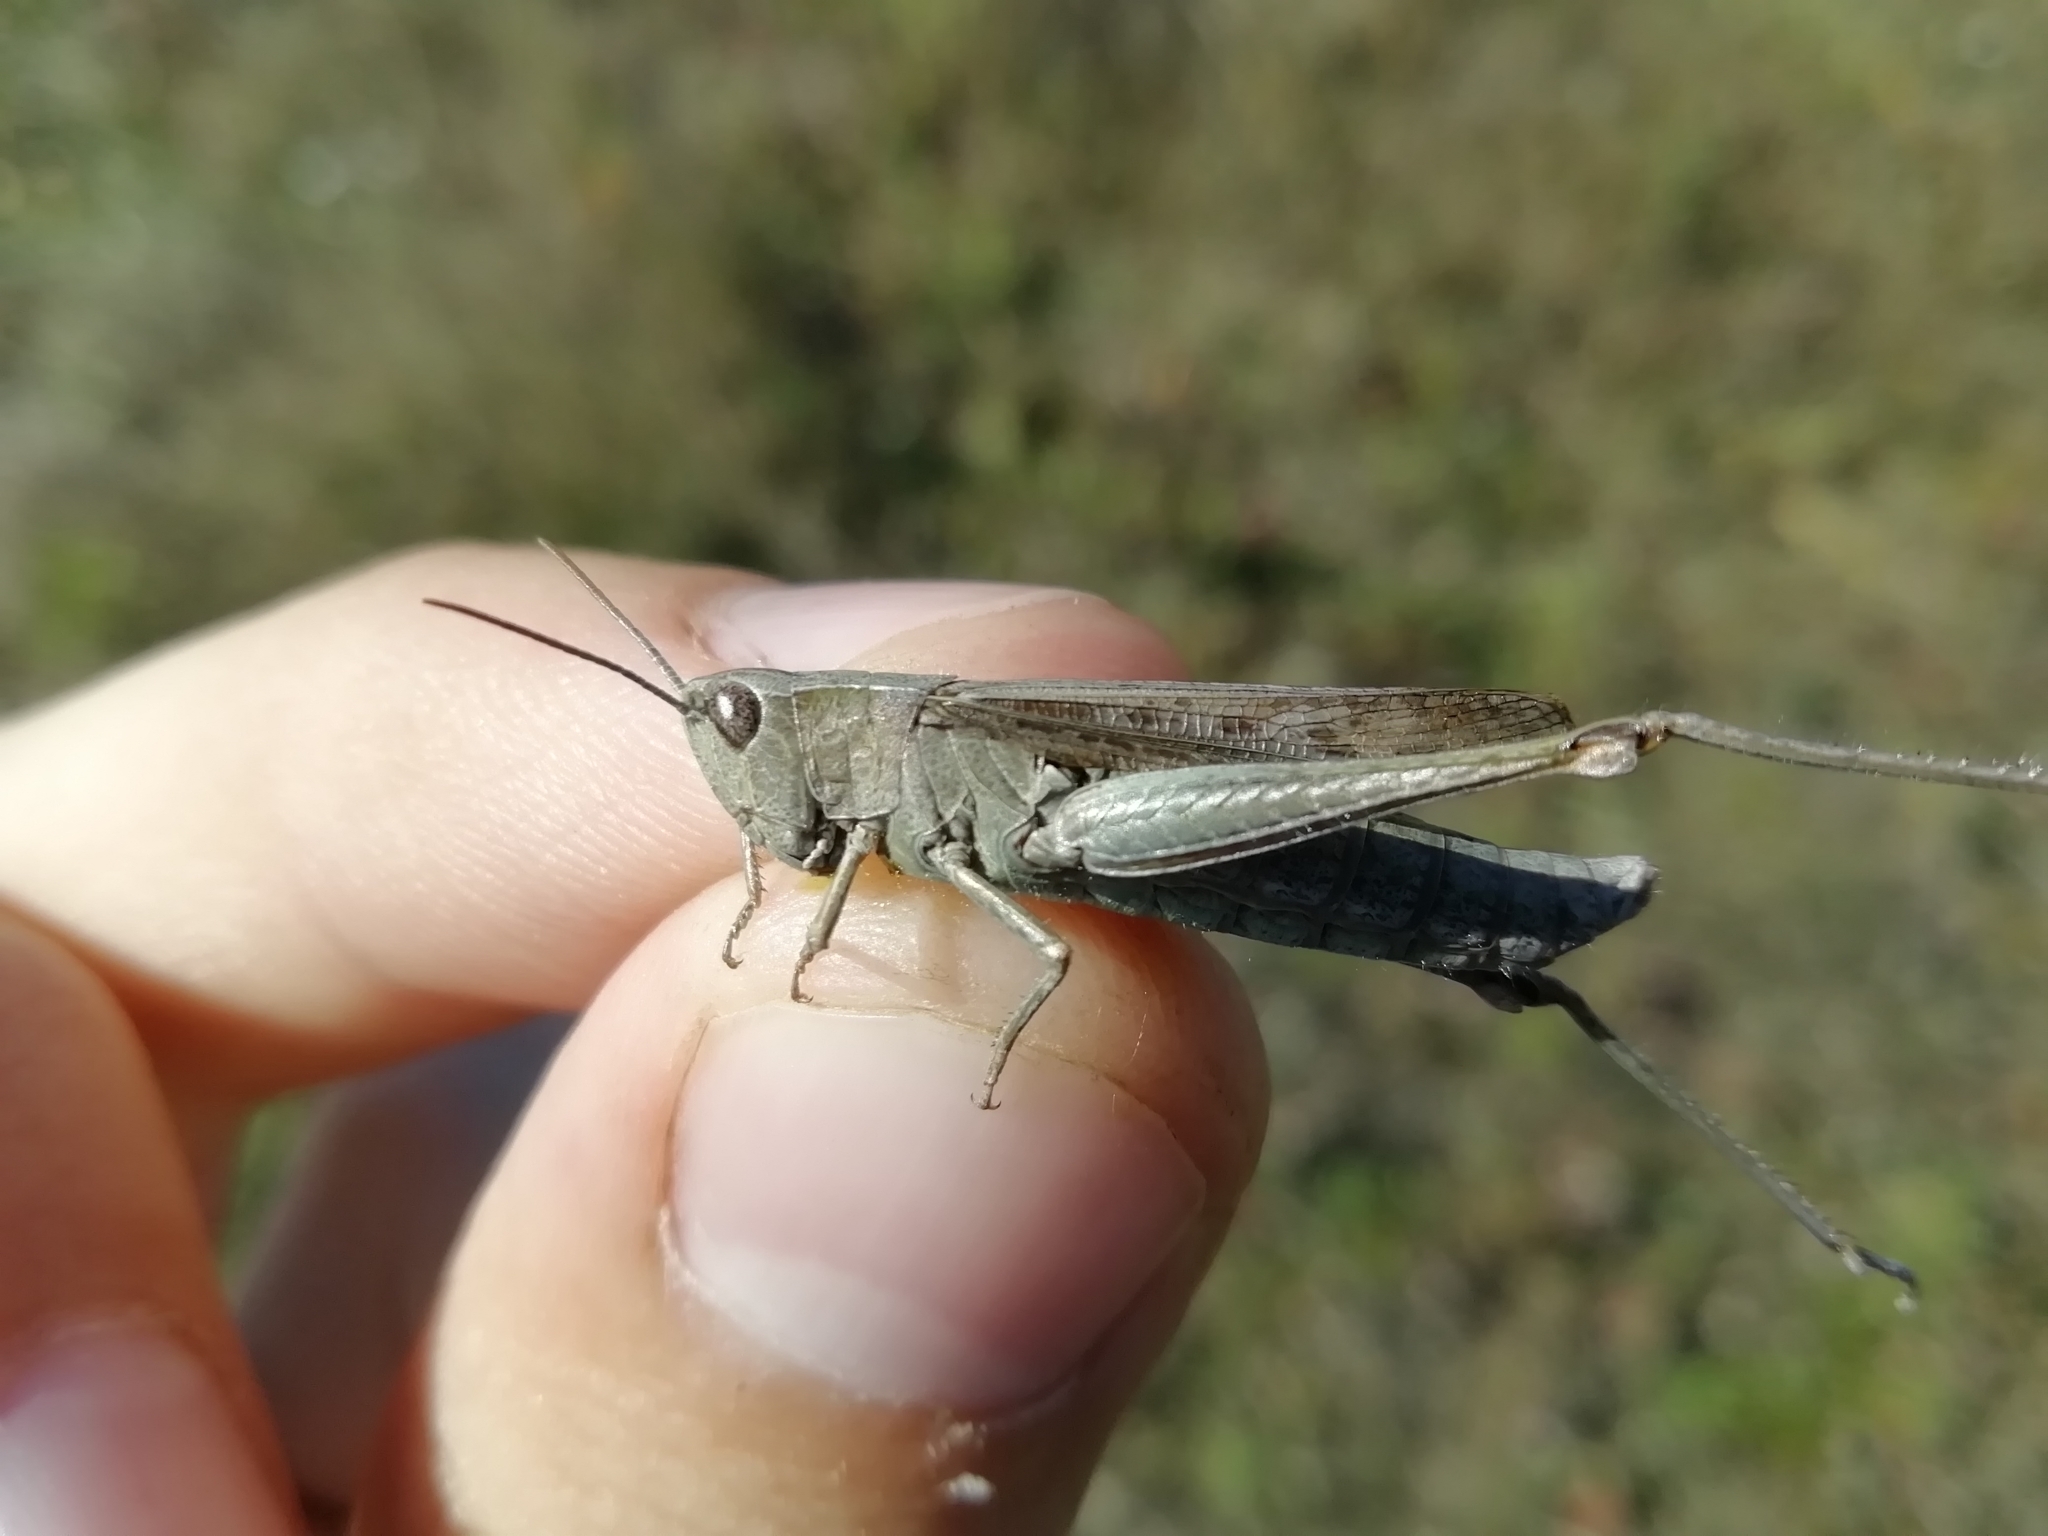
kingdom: Animalia
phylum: Arthropoda
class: Insecta
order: Orthoptera
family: Acrididae
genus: Chorthippus
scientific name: Chorthippus dorsatus
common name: Steppe grasshopper
